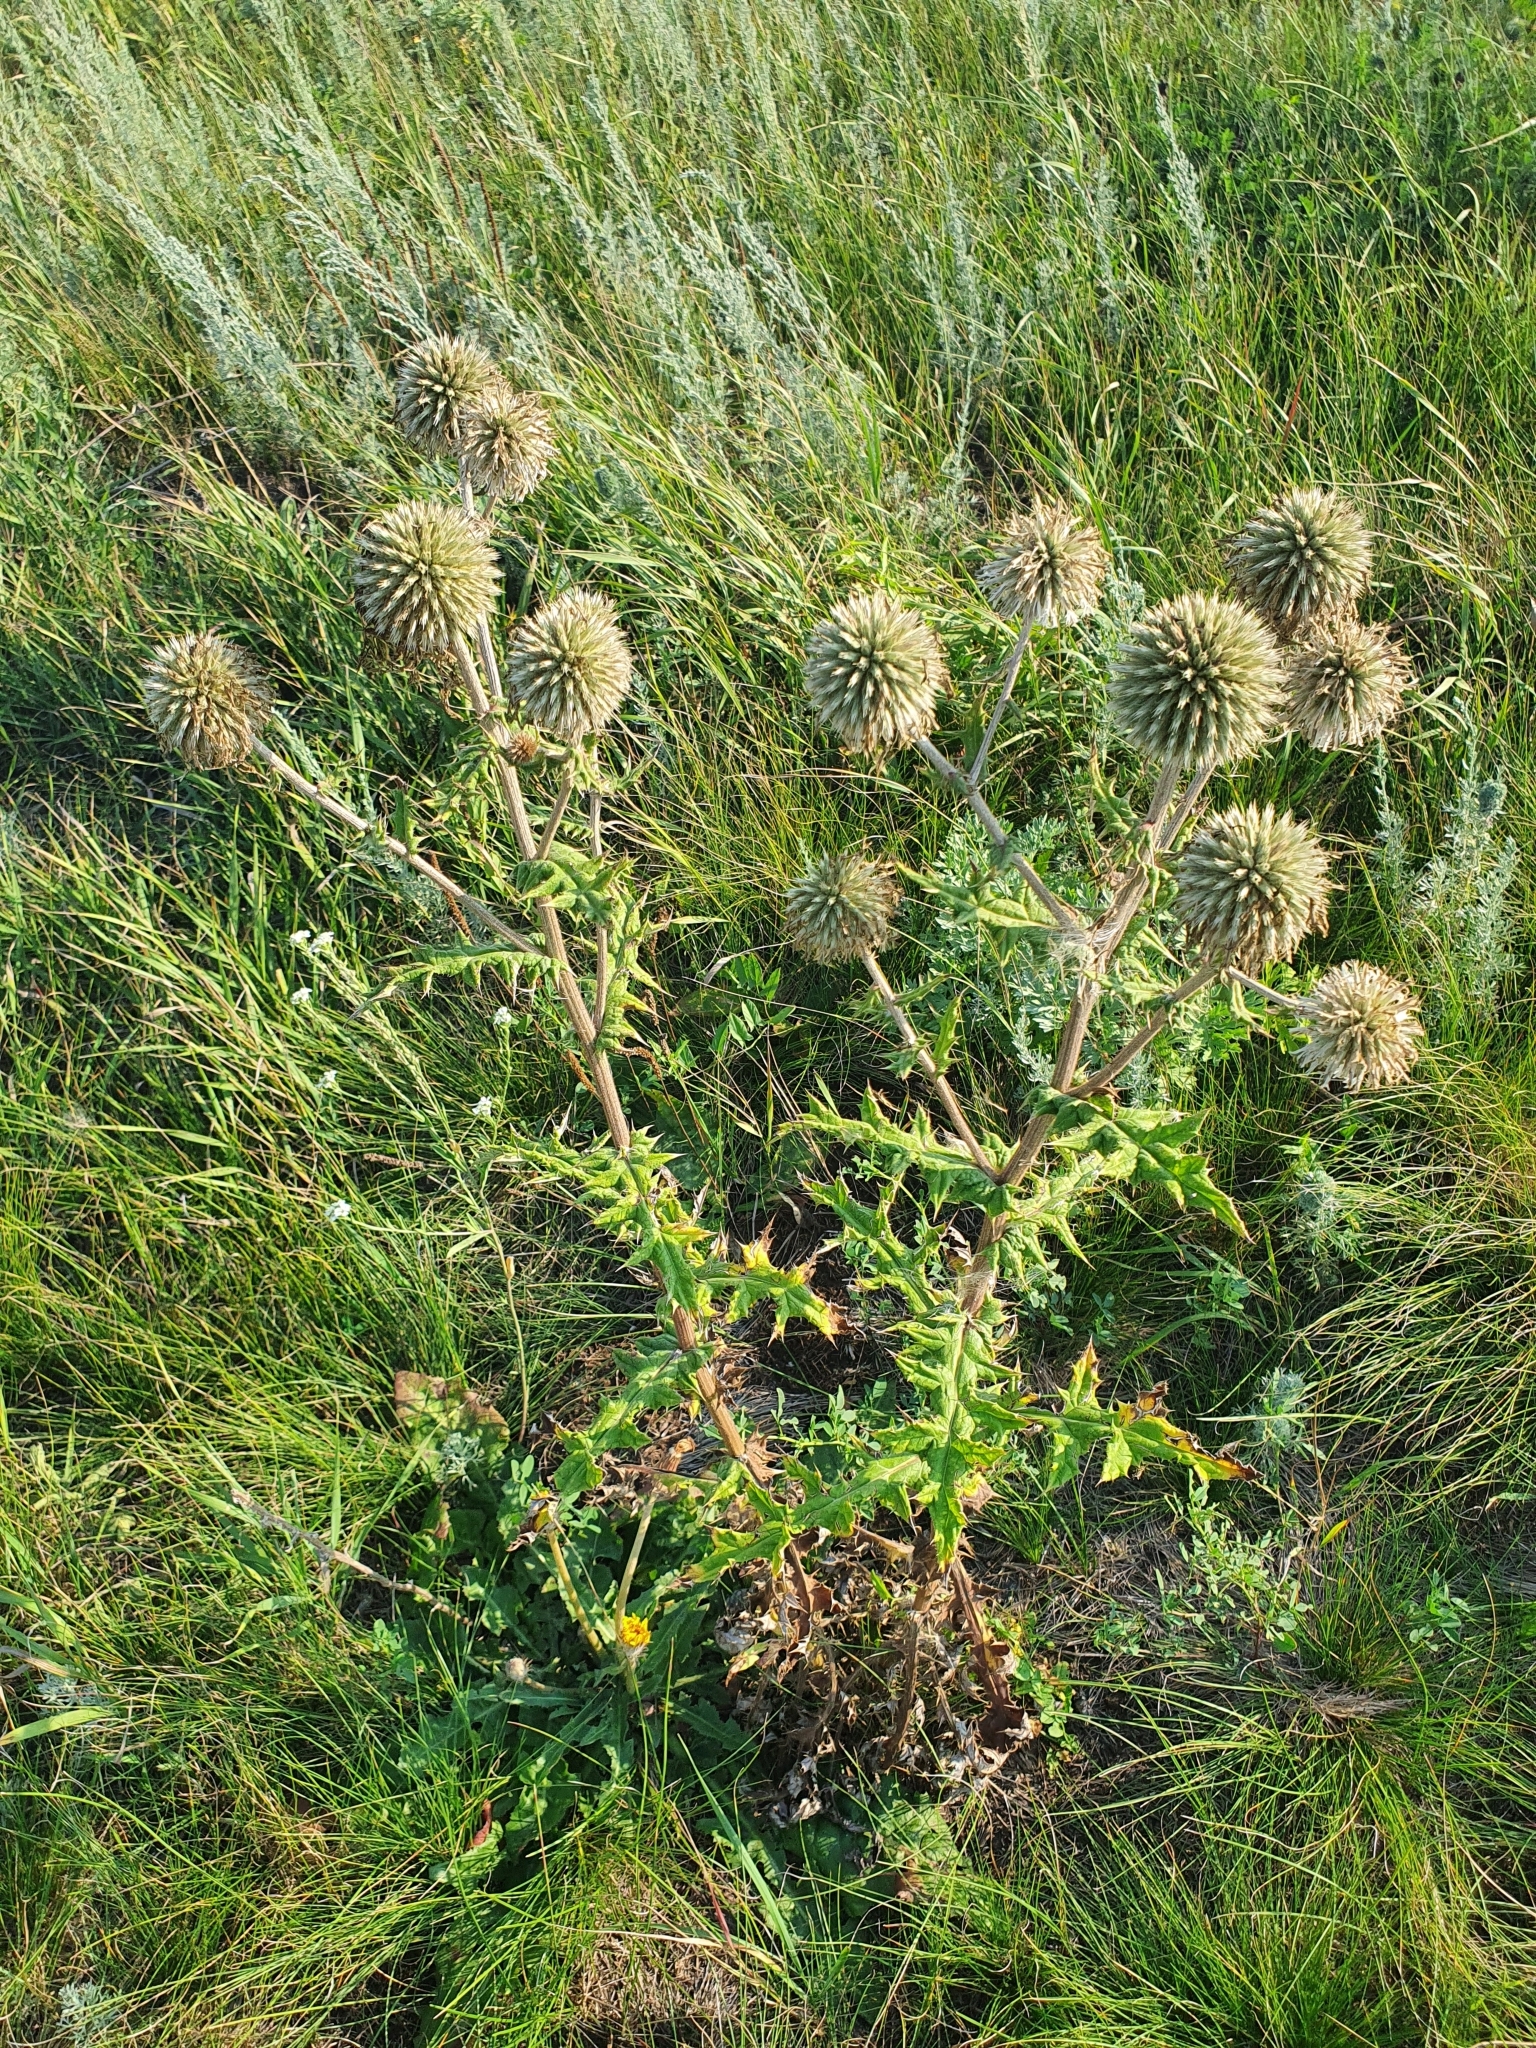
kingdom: Plantae
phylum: Tracheophyta
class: Magnoliopsida
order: Asterales
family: Asteraceae
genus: Echinops
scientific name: Echinops sphaerocephalus
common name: Glandular globe-thistle
